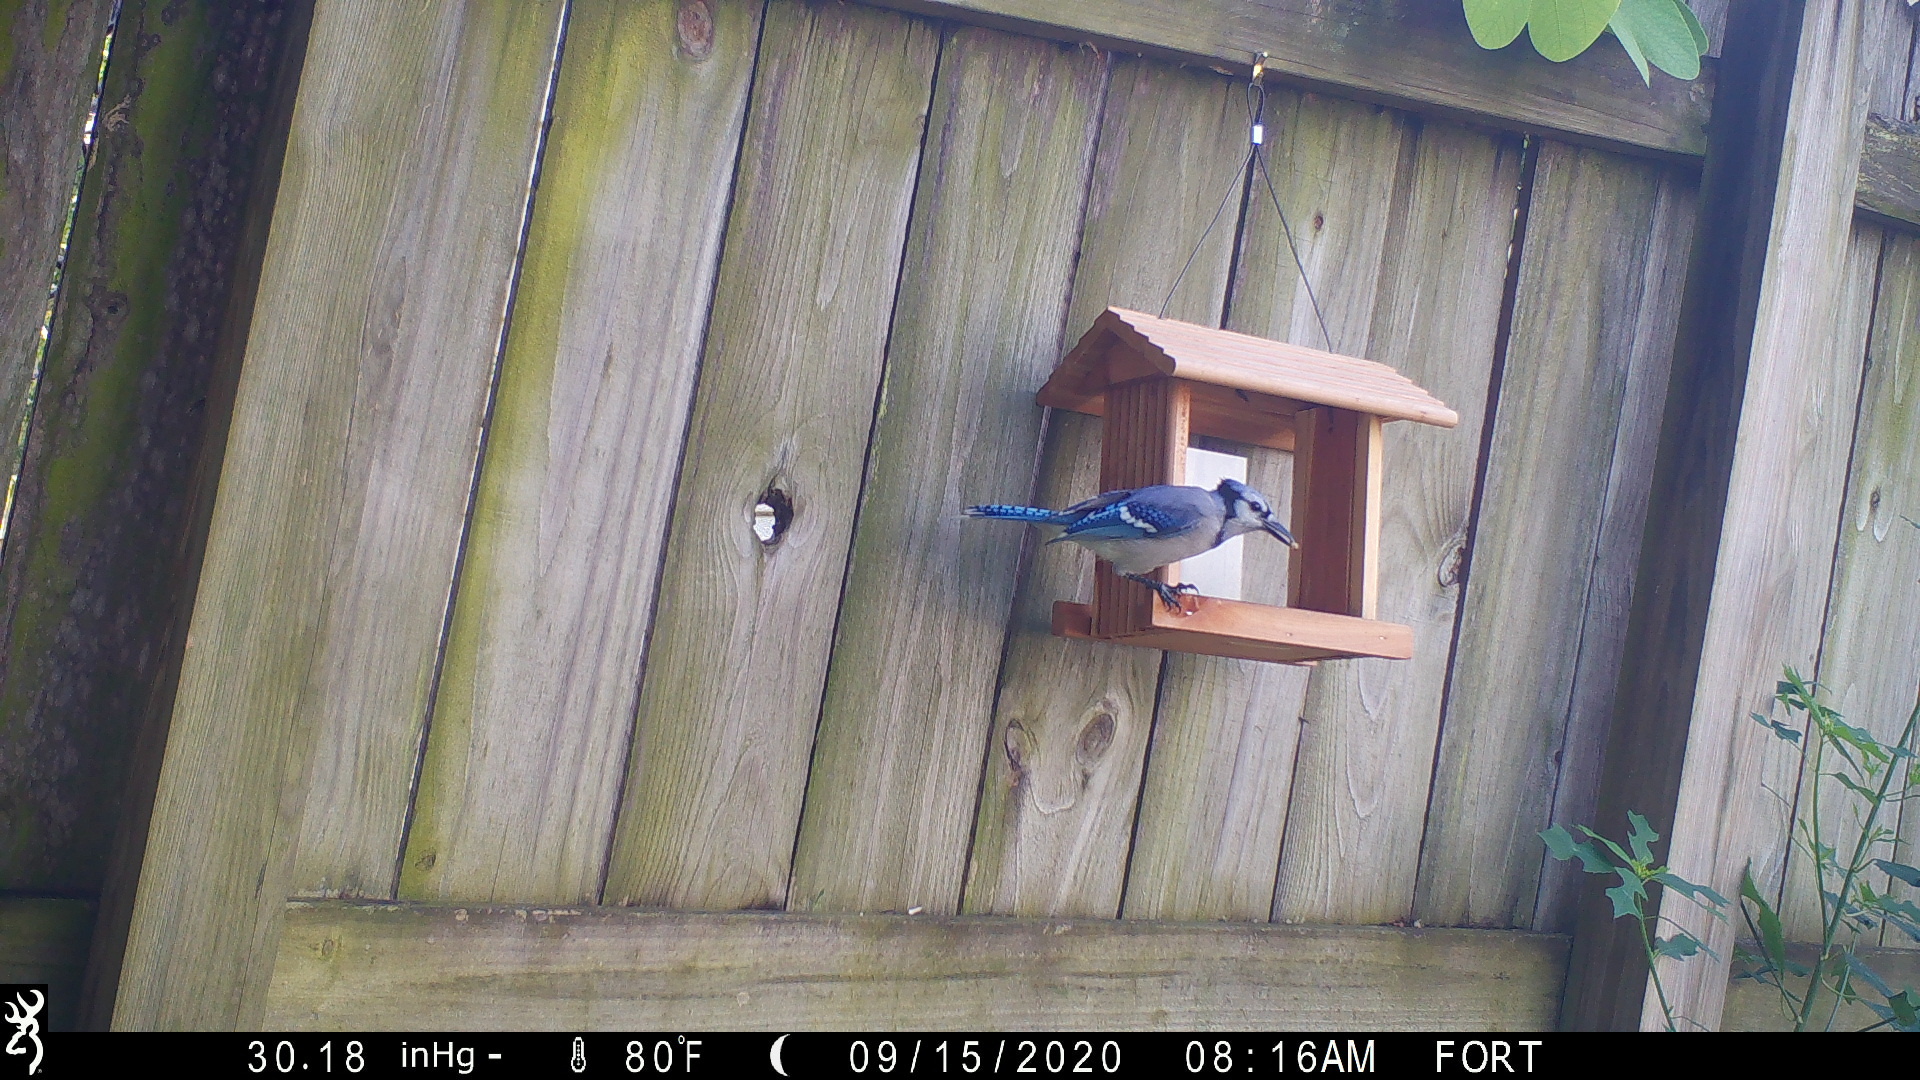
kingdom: Animalia
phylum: Chordata
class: Aves
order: Passeriformes
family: Corvidae
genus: Cyanocitta
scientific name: Cyanocitta cristata
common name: Blue jay
